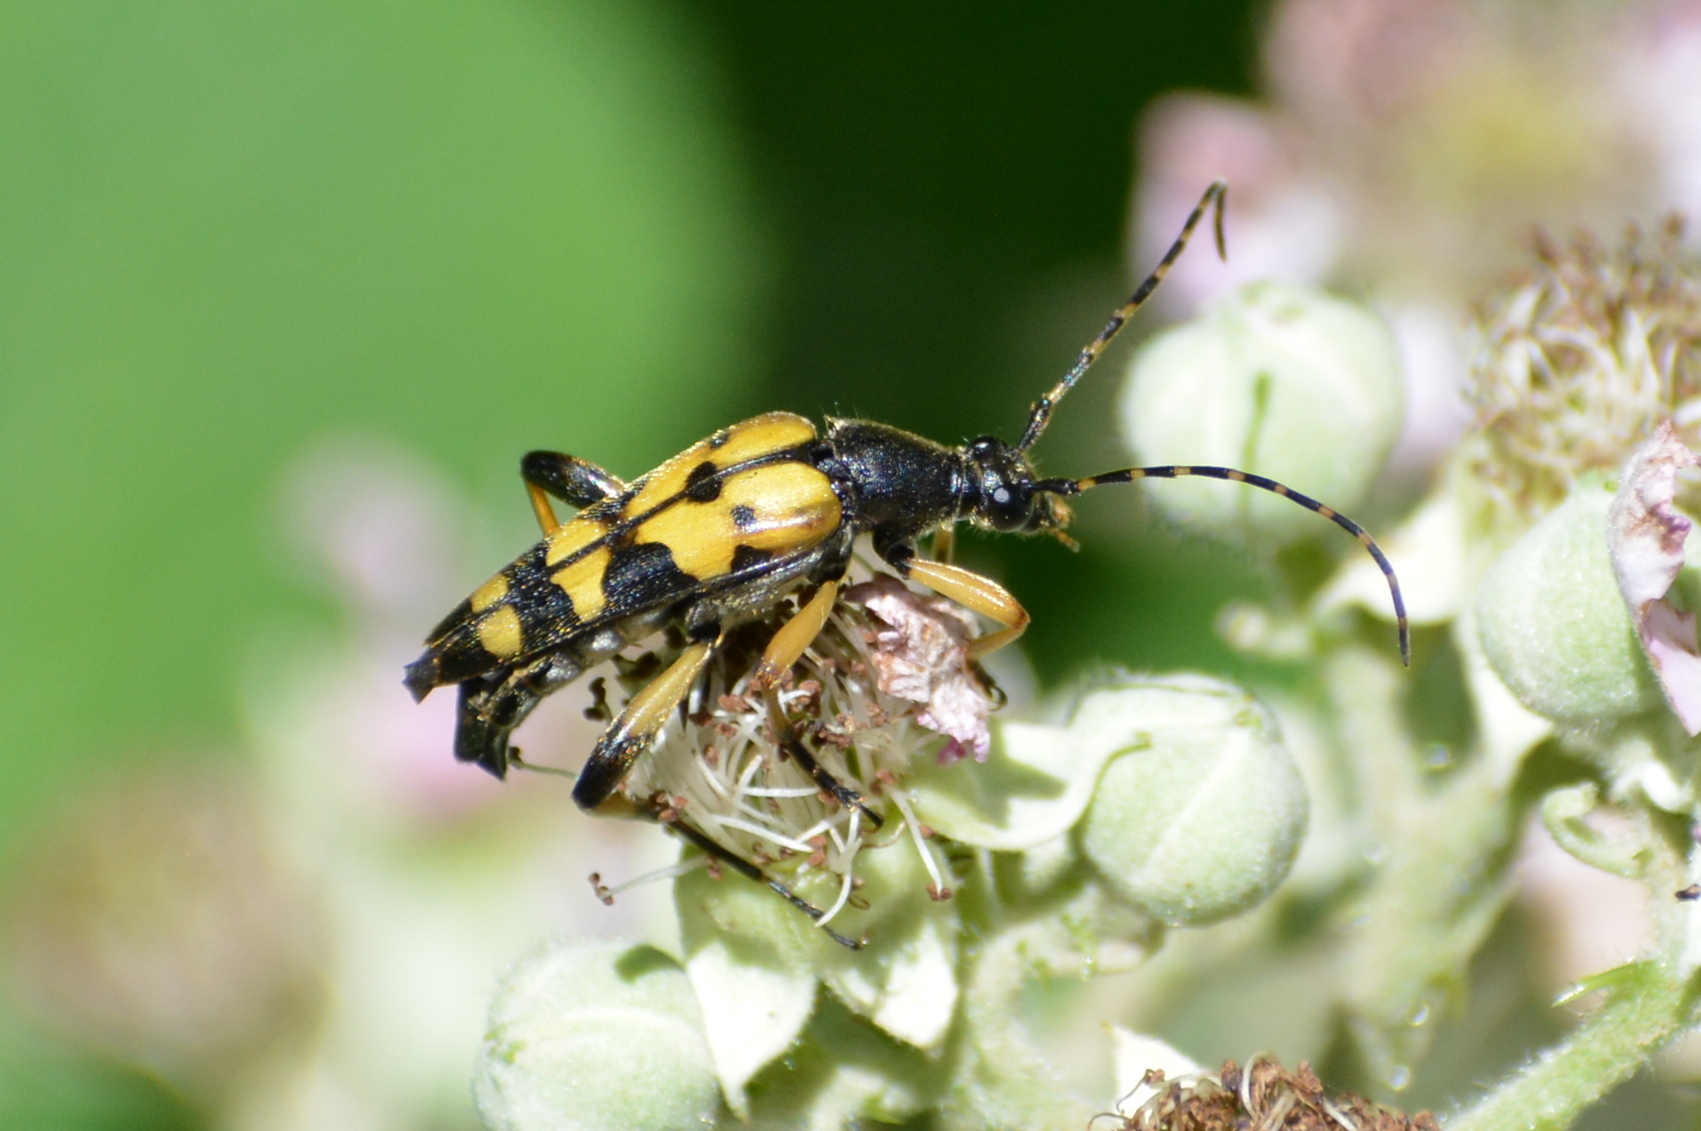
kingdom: Animalia
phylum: Arthropoda
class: Insecta
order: Coleoptera
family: Cerambycidae
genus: Rutpela
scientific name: Rutpela maculata
